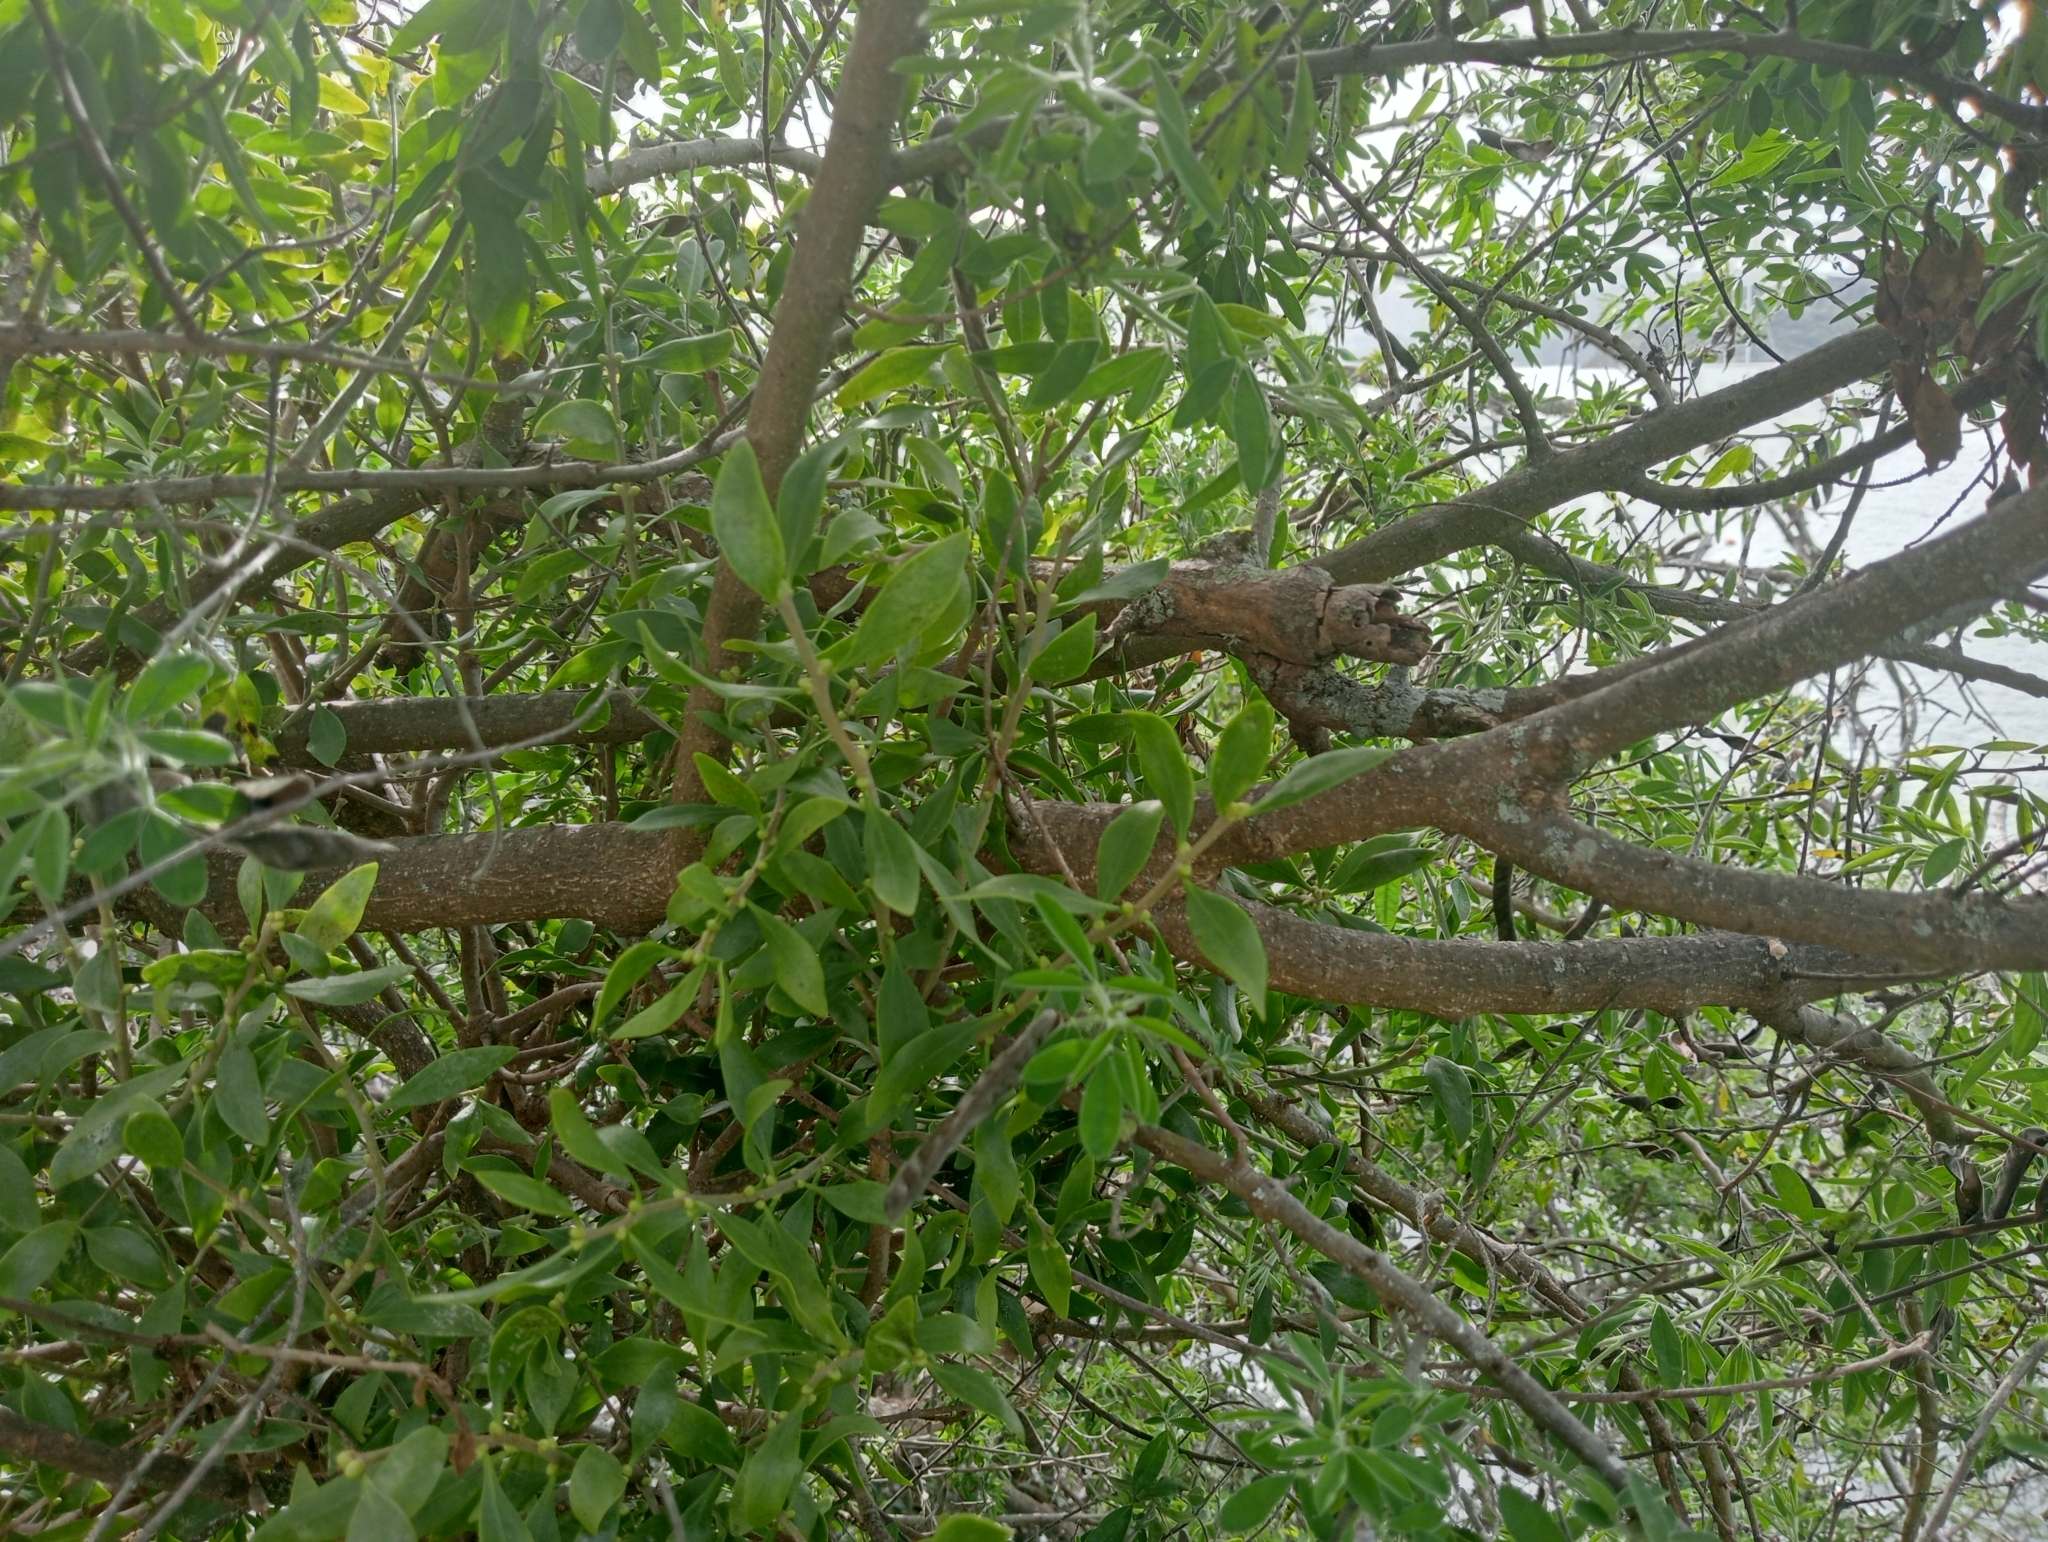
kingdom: Plantae
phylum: Tracheophyta
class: Magnoliopsida
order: Santalales
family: Loranthaceae
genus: Tupeia
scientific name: Tupeia antarctica
